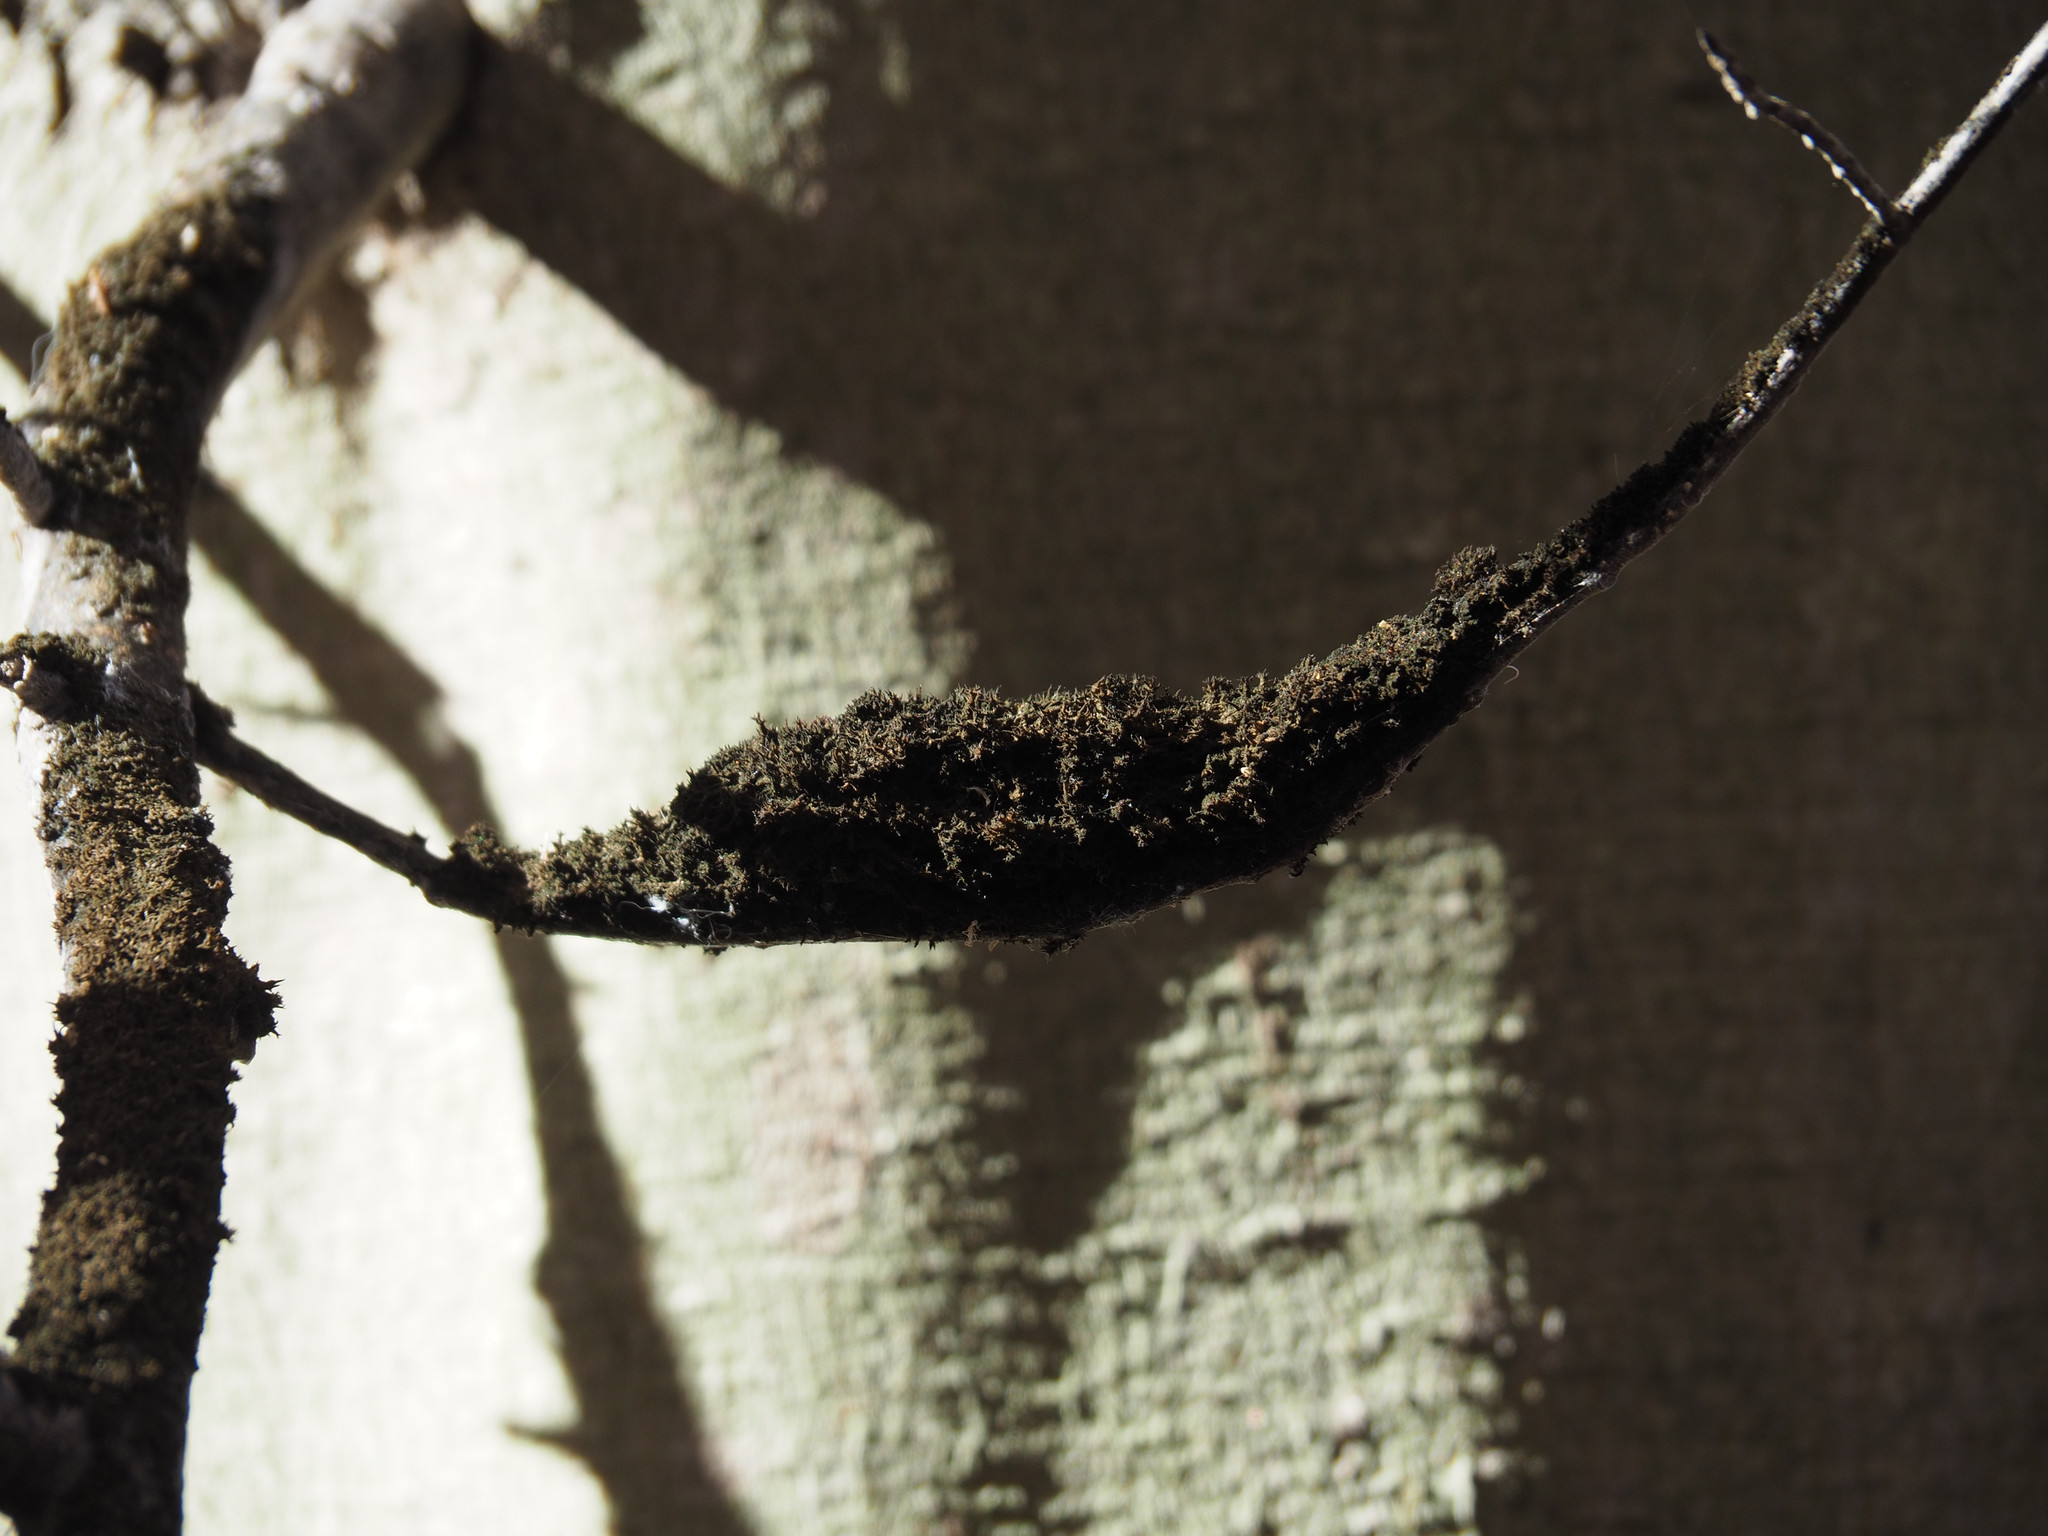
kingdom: Fungi
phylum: Ascomycota
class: Dothideomycetes
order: Capnodiales
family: Capnodiaceae
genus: Scorias
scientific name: Scorias spongiosa
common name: Black sooty mold
